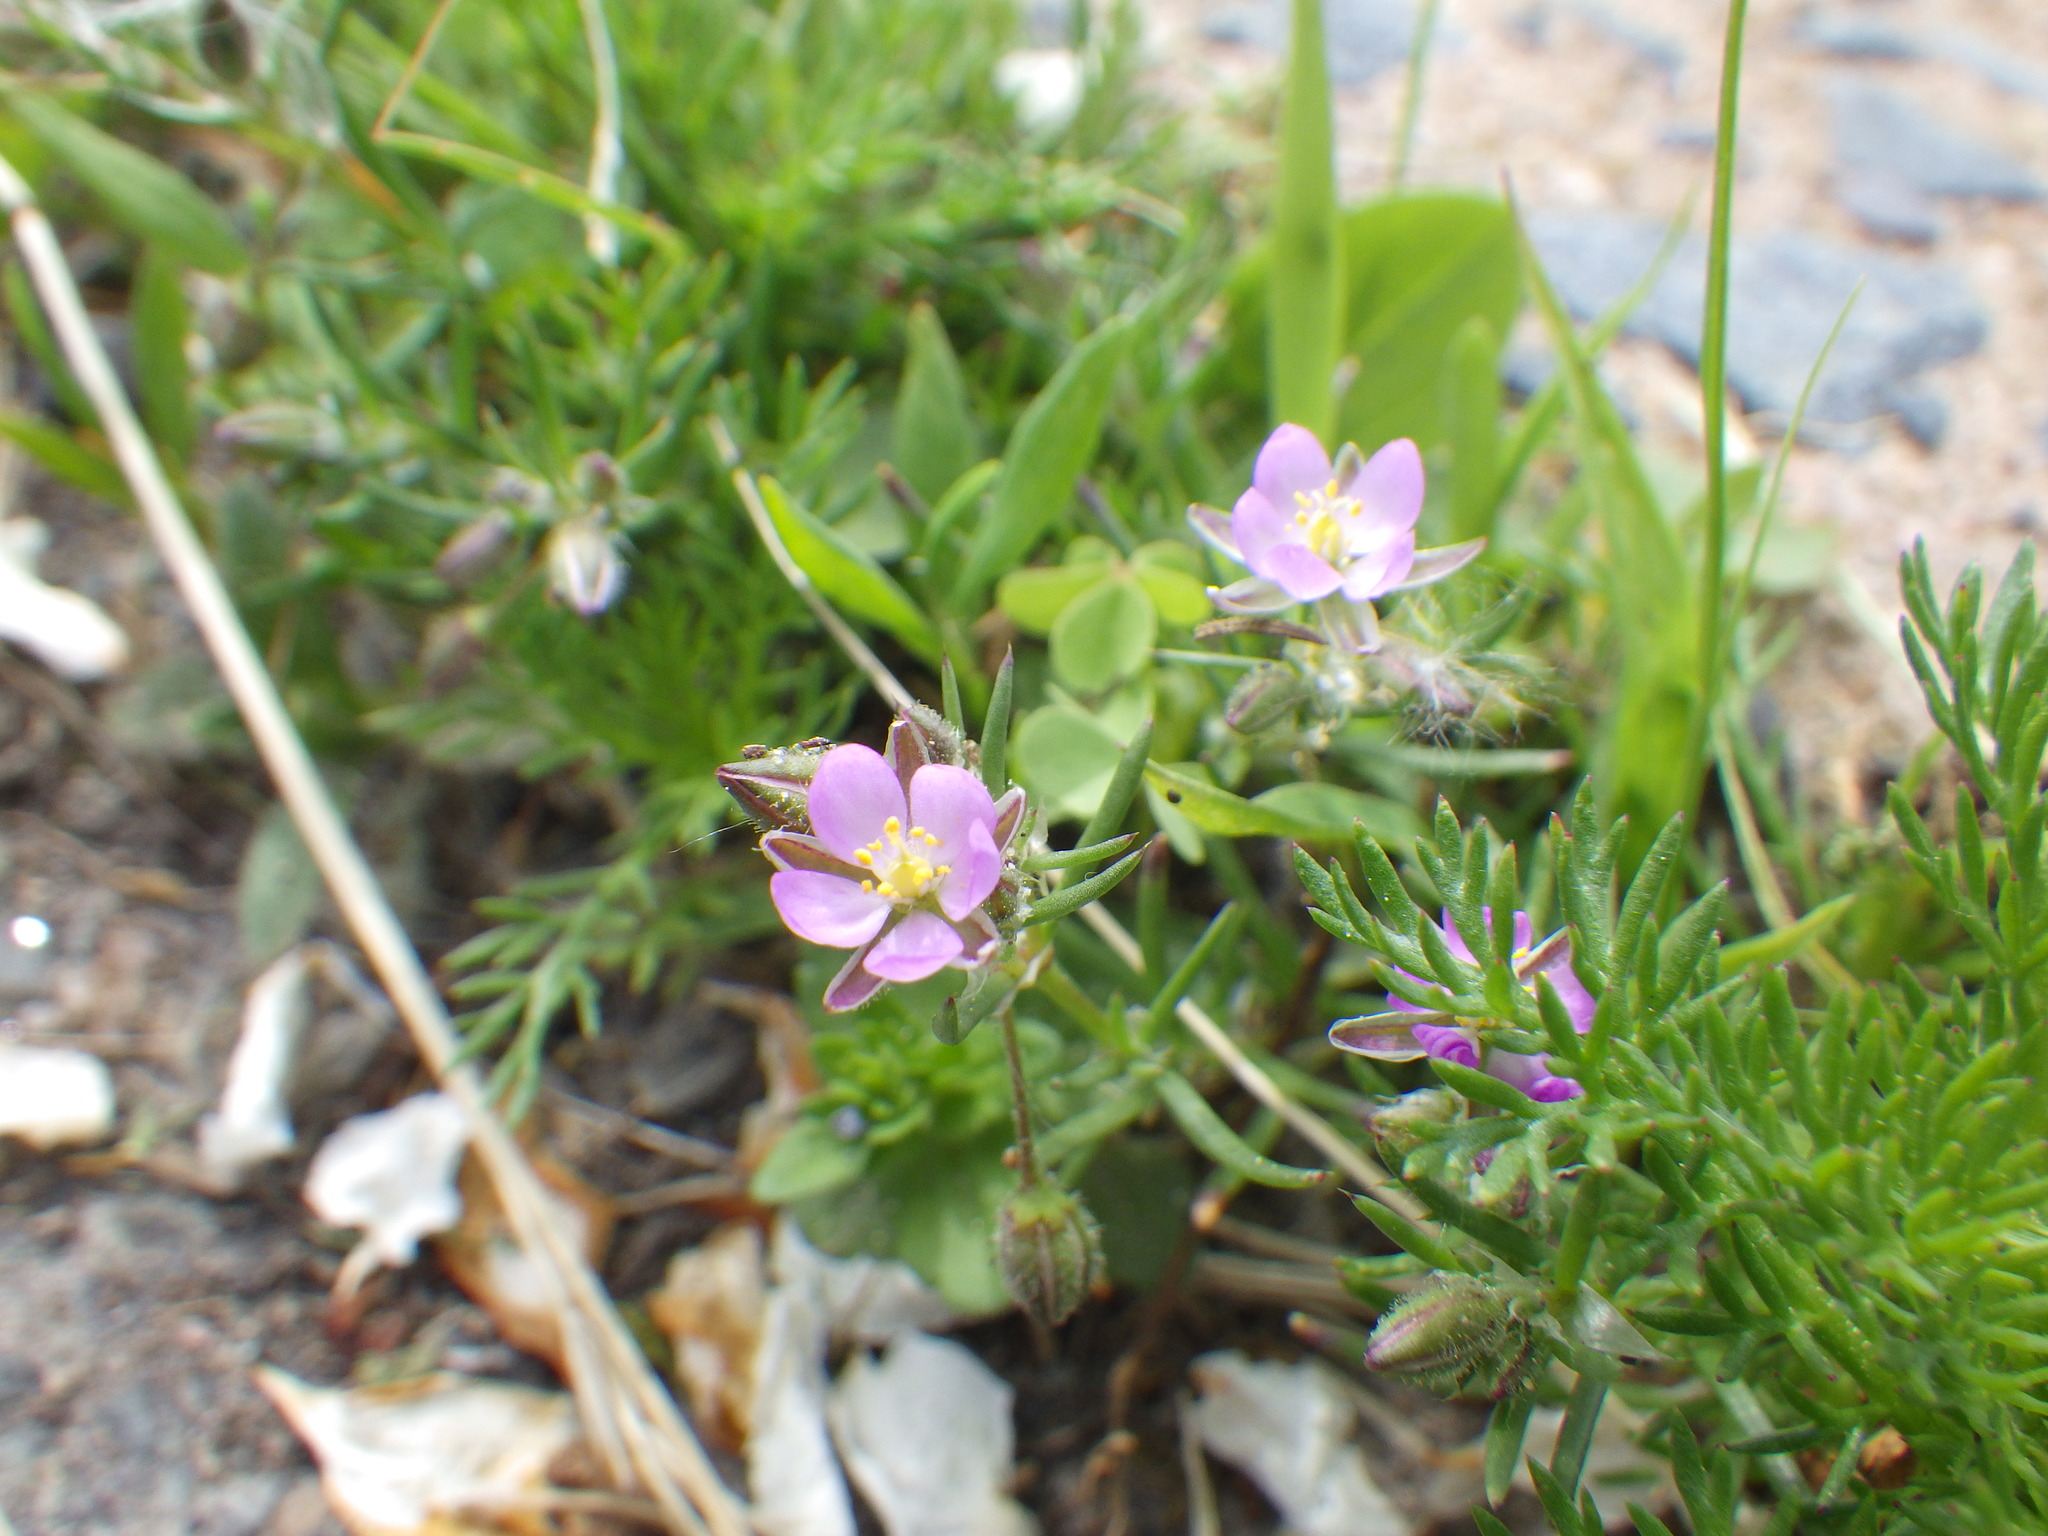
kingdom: Plantae
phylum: Tracheophyta
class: Magnoliopsida
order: Caryophyllales
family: Caryophyllaceae
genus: Spergularia
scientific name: Spergularia rubra
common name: Red sand-spurrey
